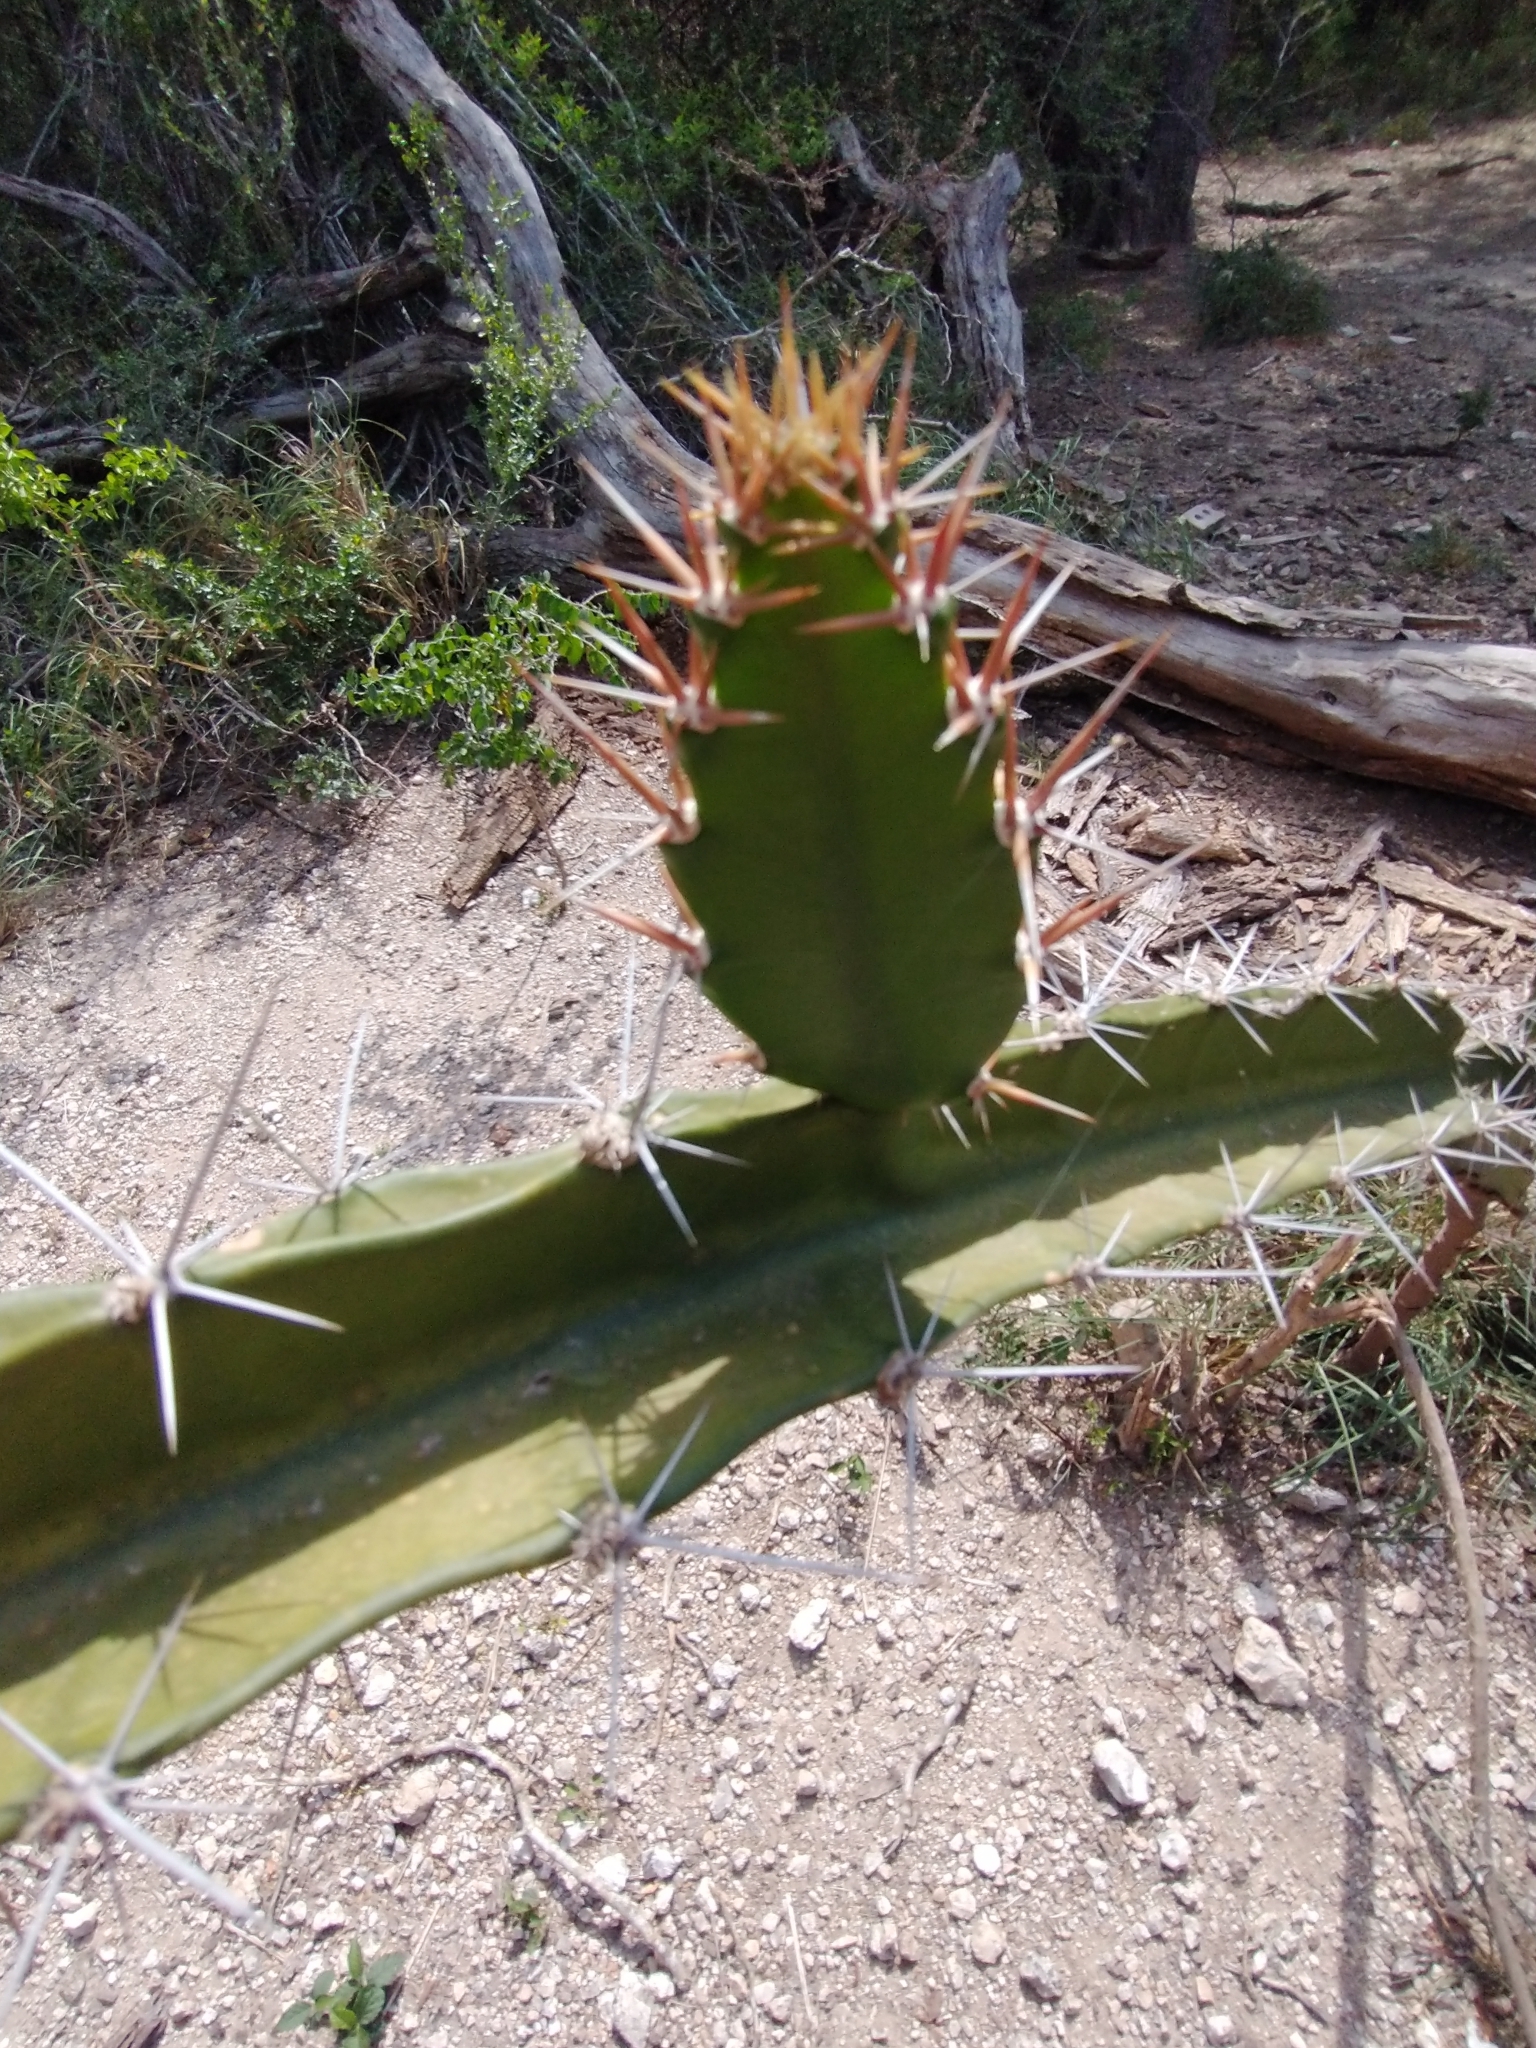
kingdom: Plantae
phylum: Tracheophyta
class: Magnoliopsida
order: Caryophyllales
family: Cactaceae
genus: Acanthocereus
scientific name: Acanthocereus tetragonus
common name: Triangle cactus
